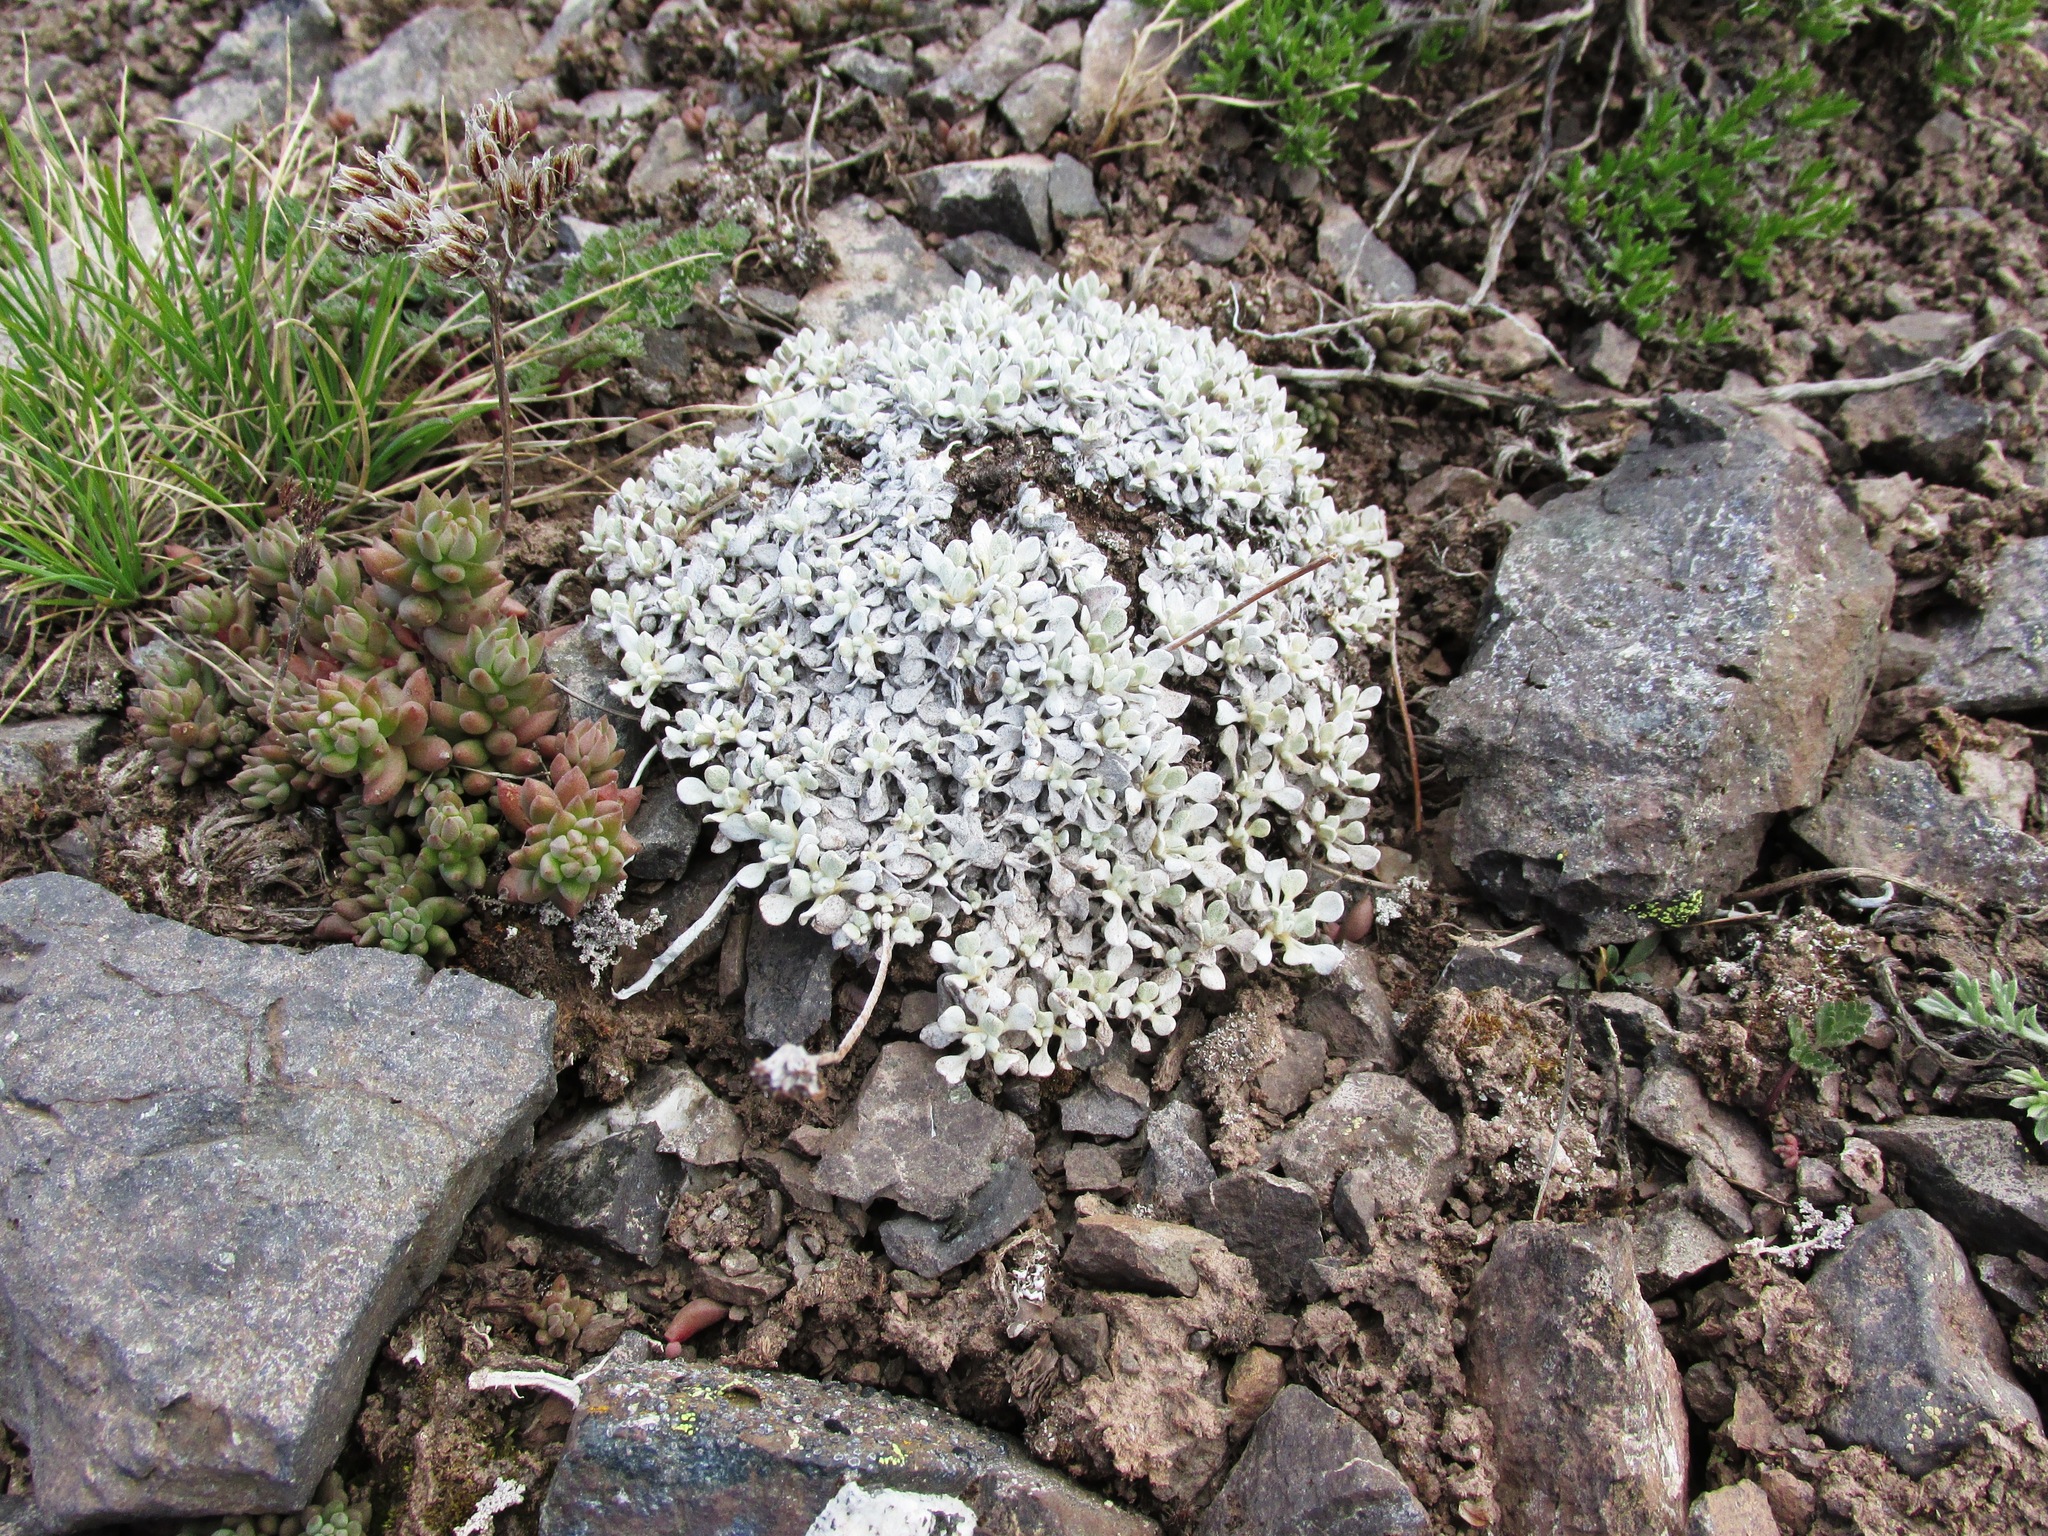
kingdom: Plantae
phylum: Tracheophyta
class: Magnoliopsida
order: Caryophyllales
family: Polygonaceae
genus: Eriogonum
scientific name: Eriogonum ovalifolium
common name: Cushion buckwheat
